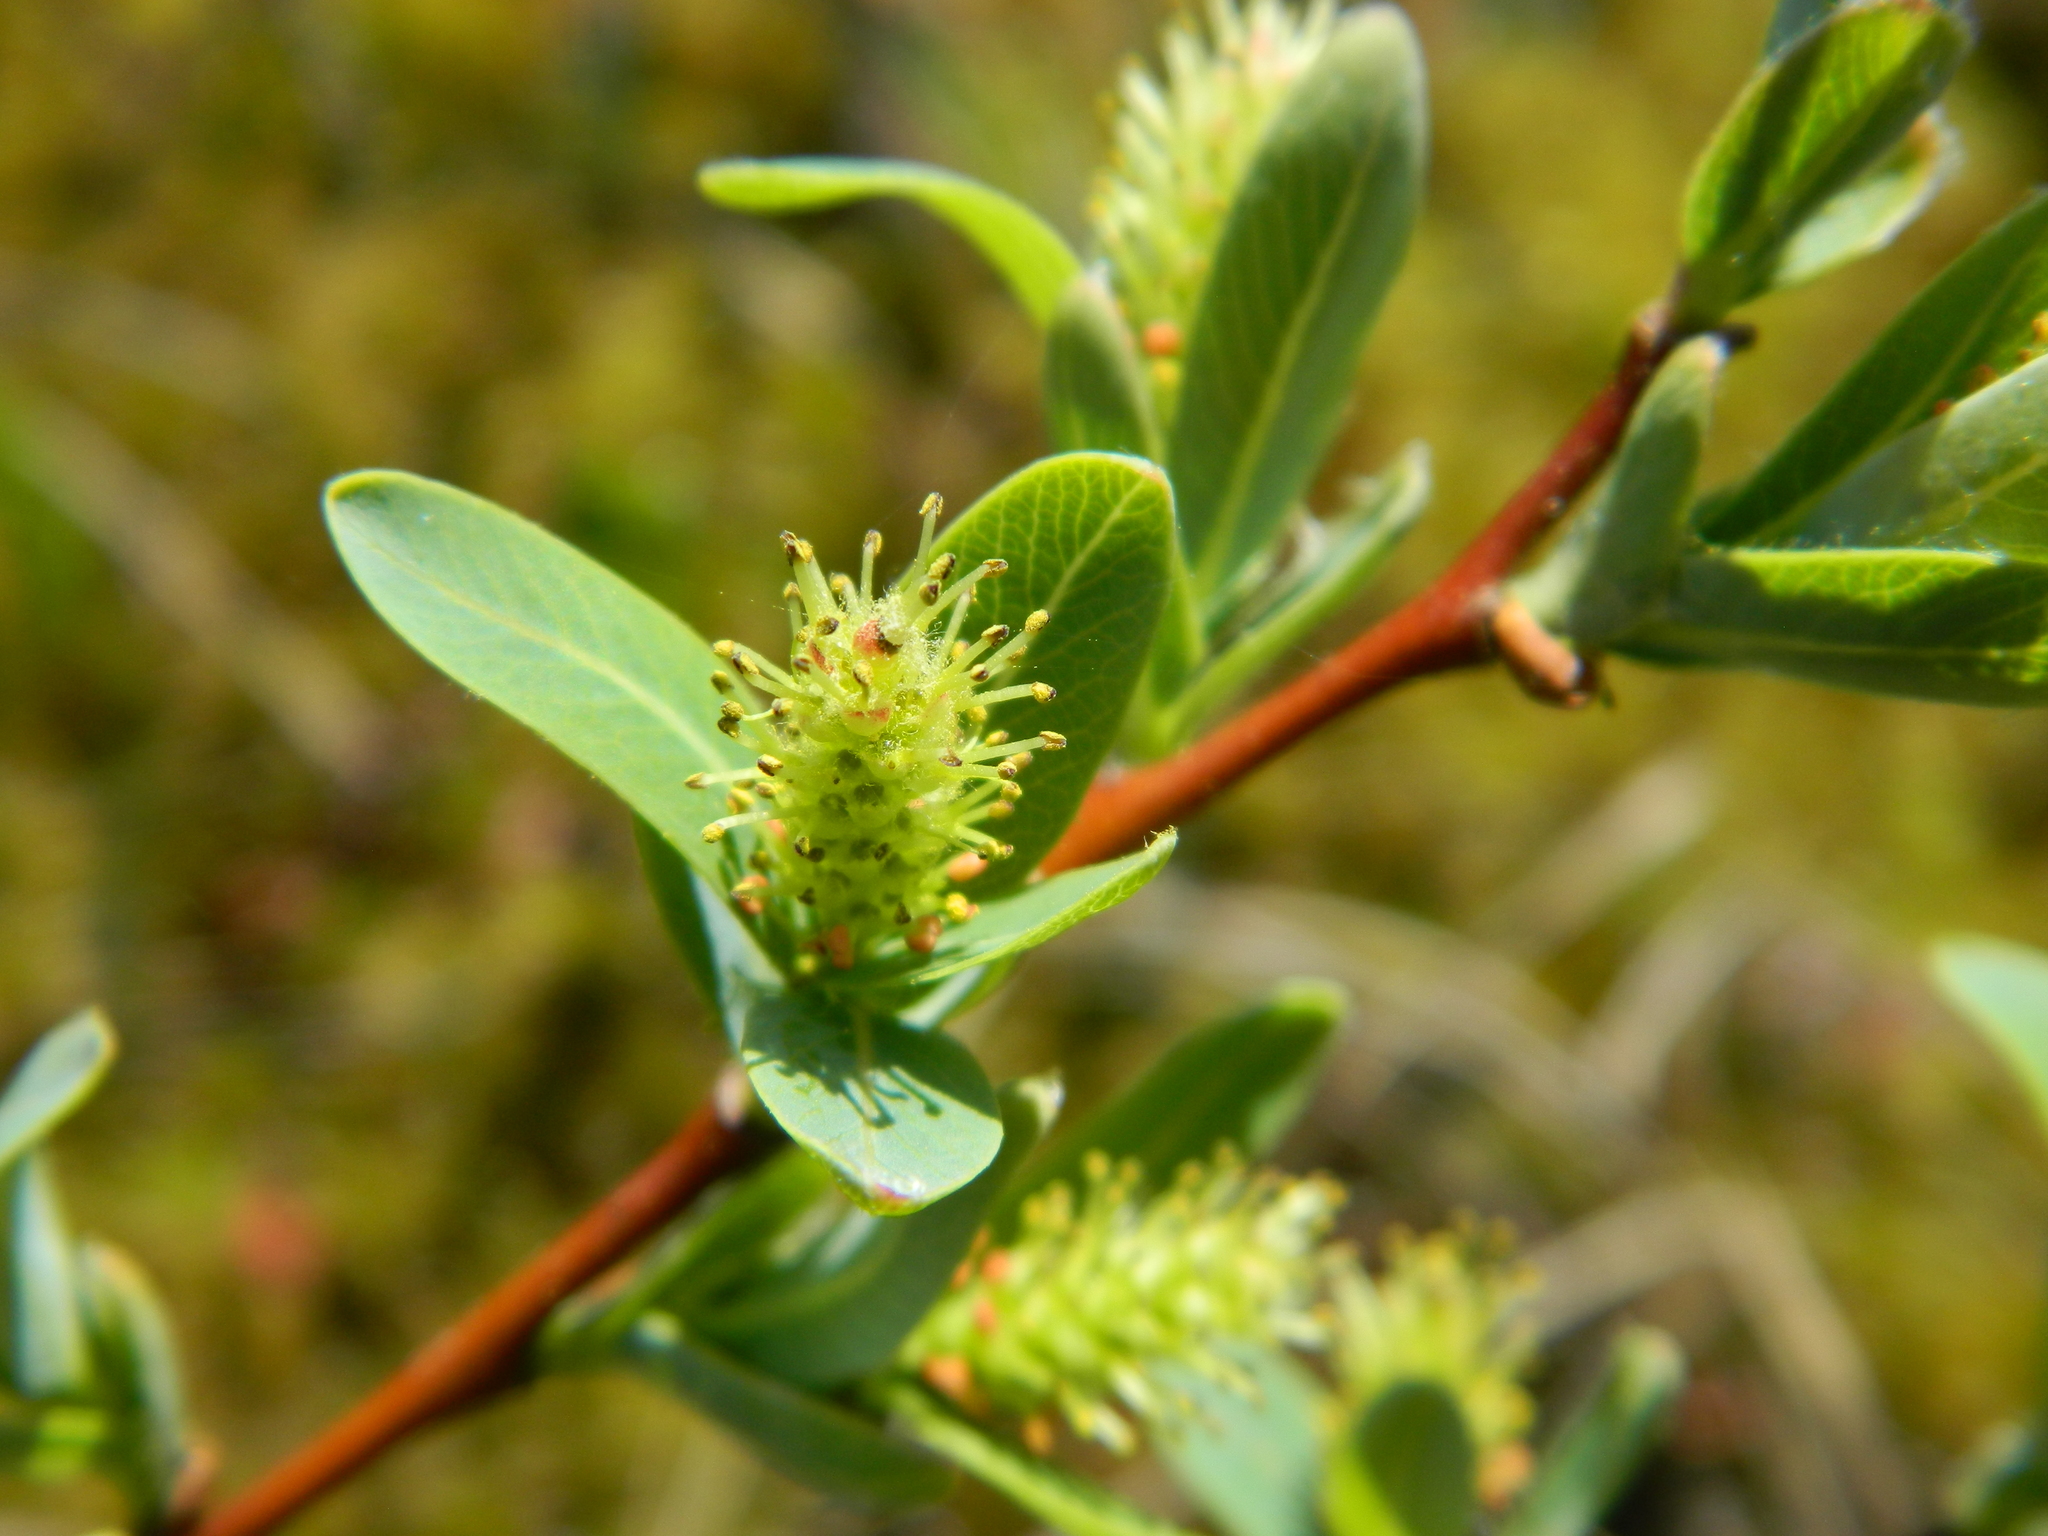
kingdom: Plantae
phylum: Tracheophyta
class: Magnoliopsida
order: Malpighiales
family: Salicaceae
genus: Salix
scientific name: Salix pedicellaris
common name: Bog willow
